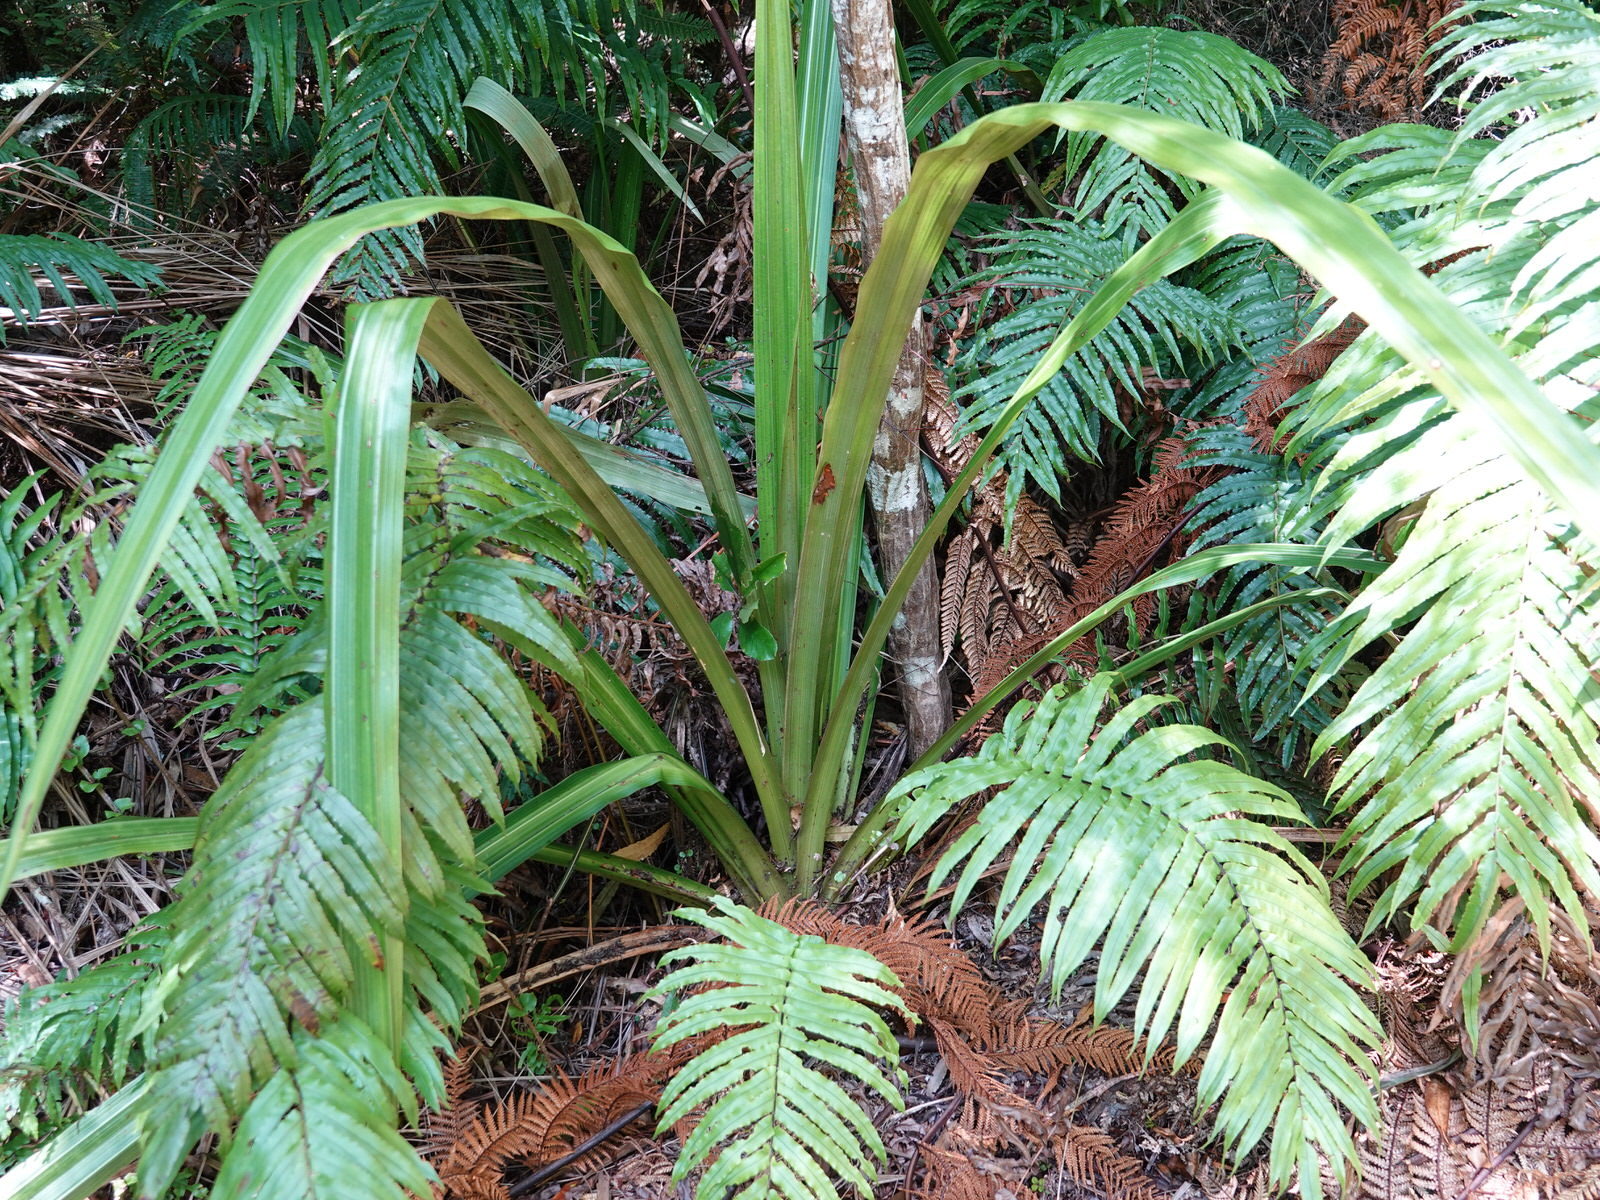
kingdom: Plantae
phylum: Tracheophyta
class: Liliopsida
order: Asparagales
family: Asteliaceae
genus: Astelia
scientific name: Astelia grandis
